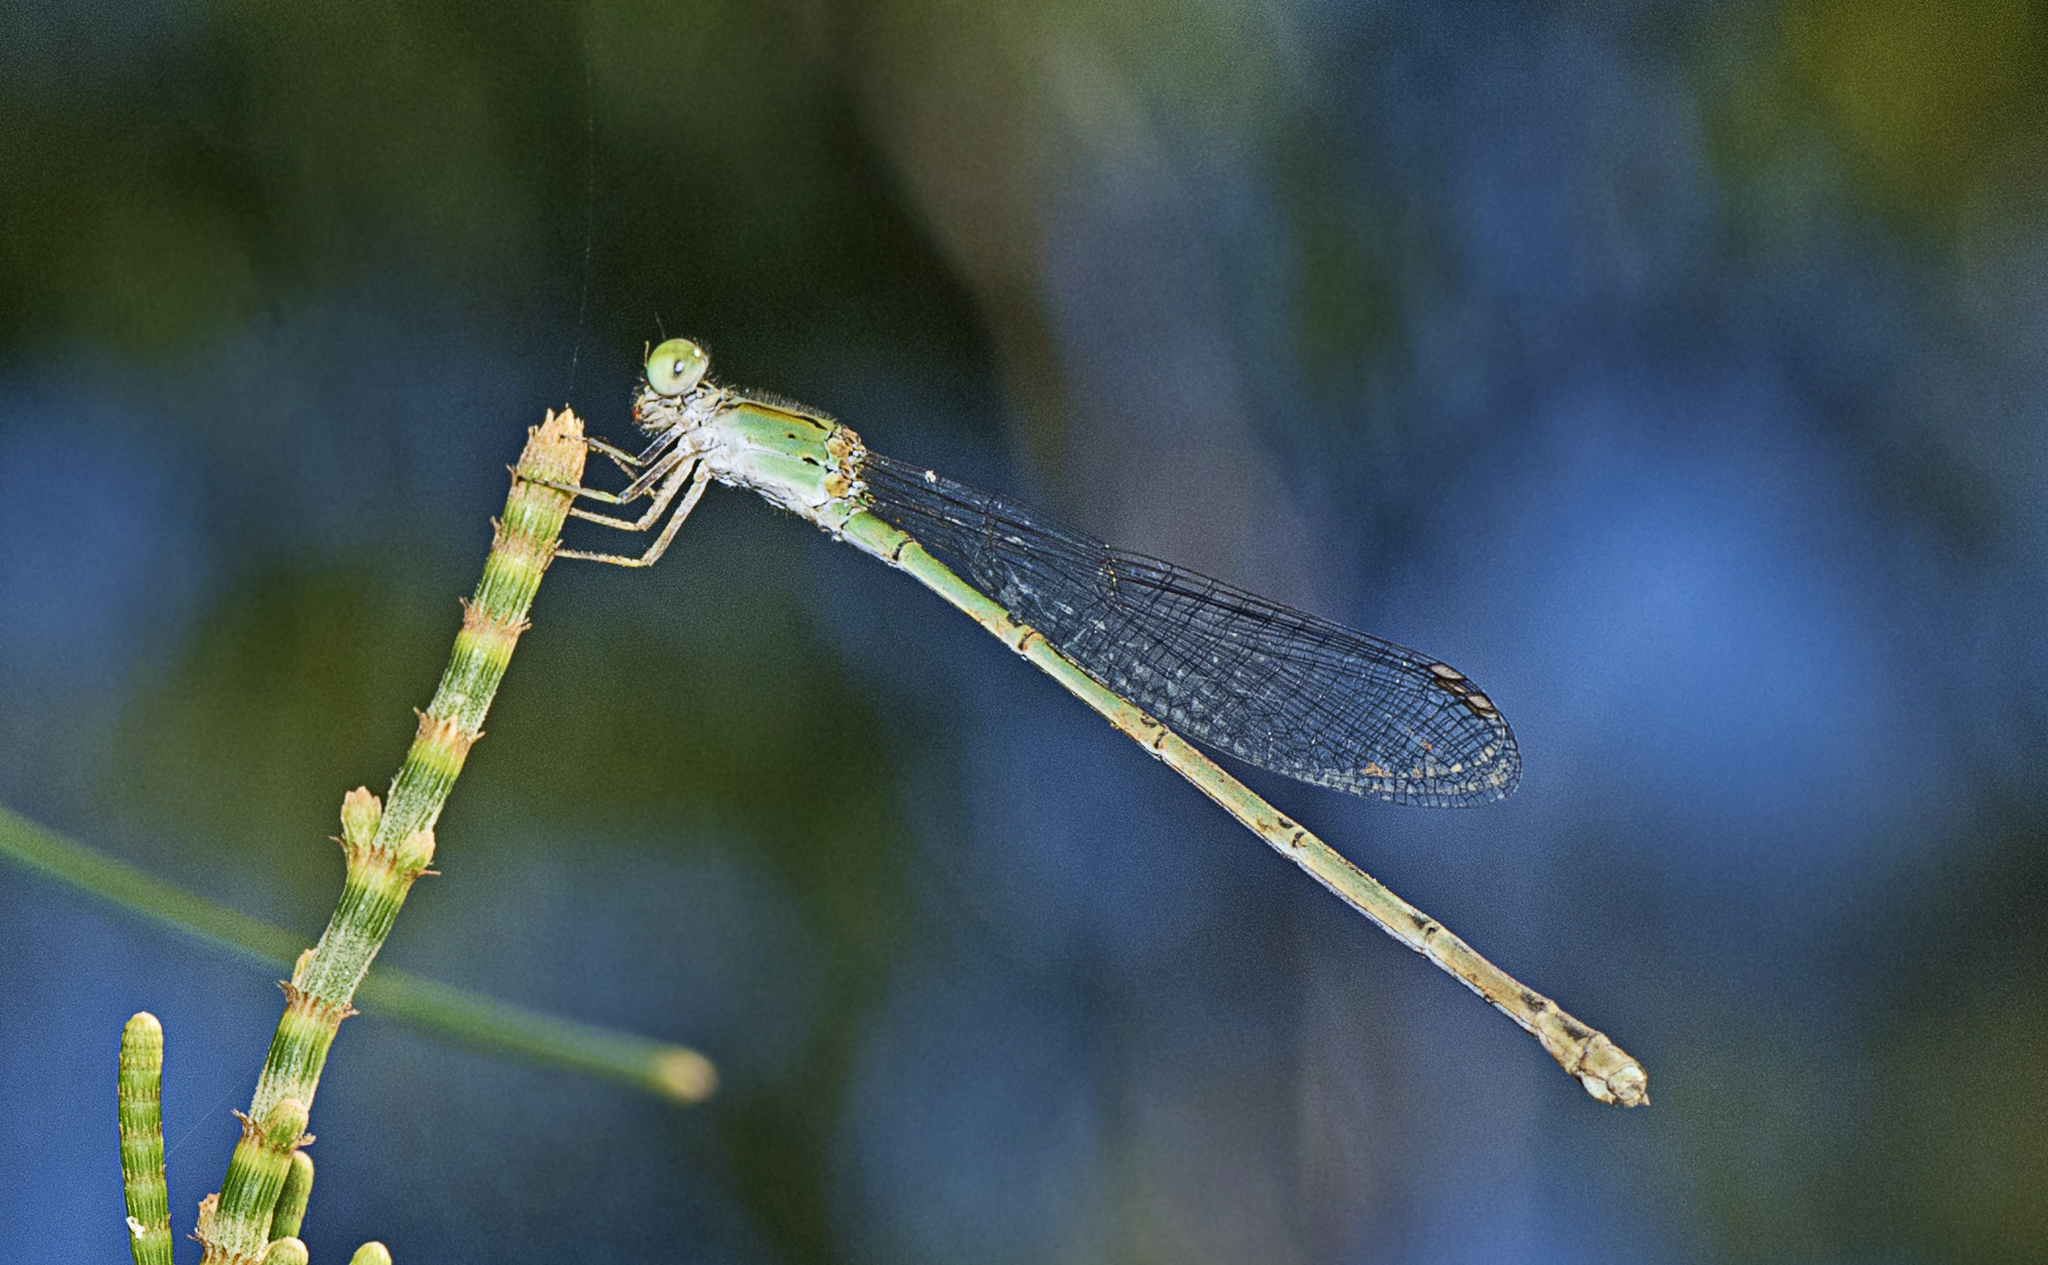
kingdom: Animalia
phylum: Arthropoda
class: Insecta
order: Odonata
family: Coenagrionidae
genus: Pseudagrion
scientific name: Pseudagrion microcephalum
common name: Blue riverdamsel
